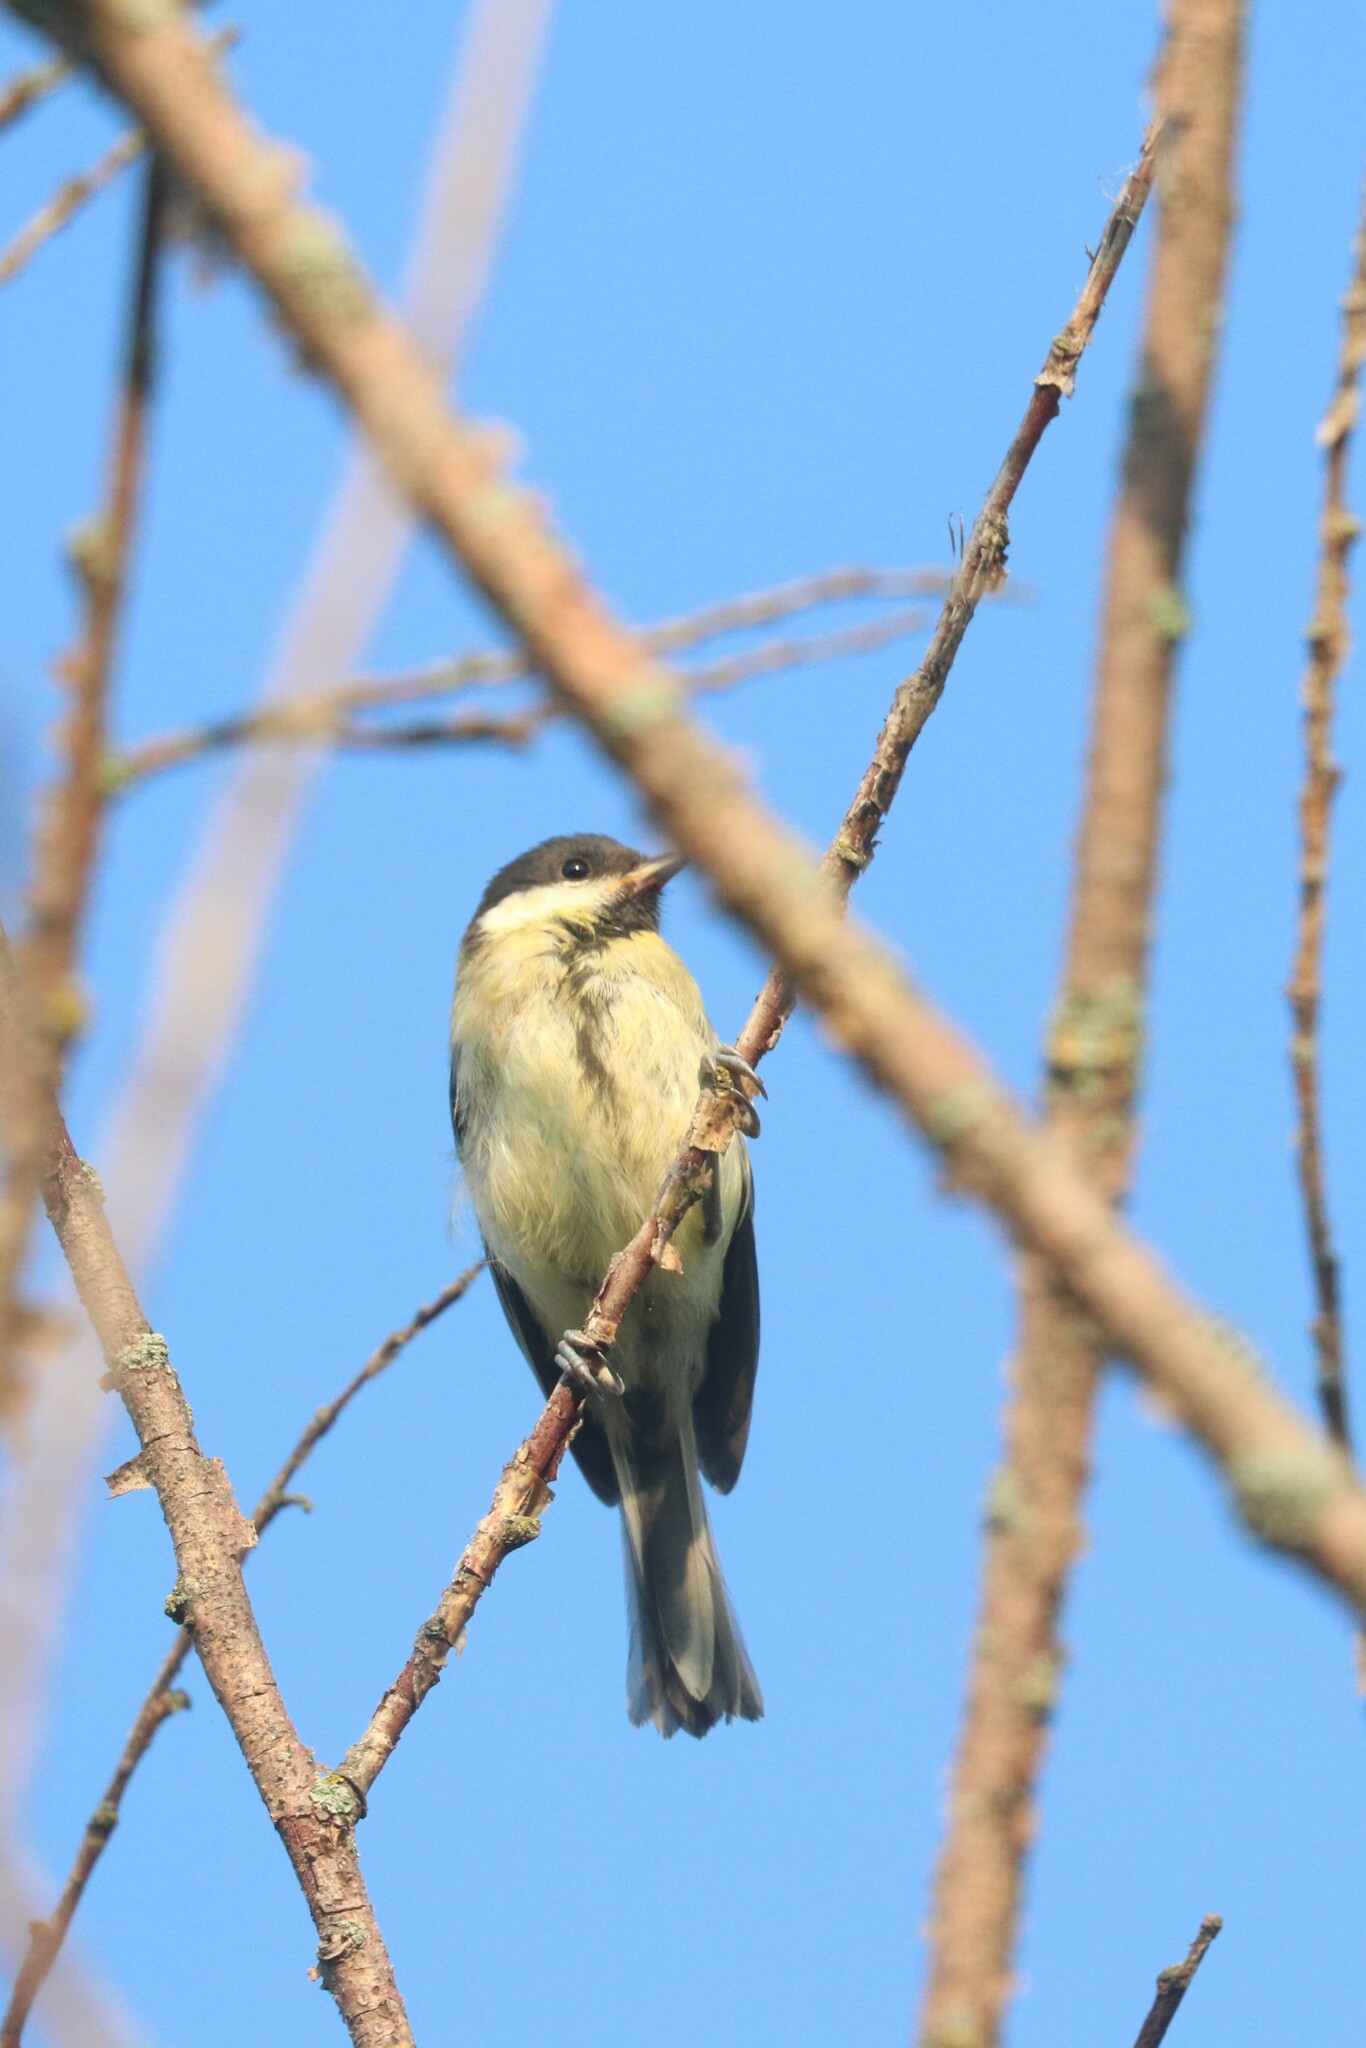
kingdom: Animalia
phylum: Chordata
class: Aves
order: Passeriformes
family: Paridae
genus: Parus
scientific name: Parus major
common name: Great tit
